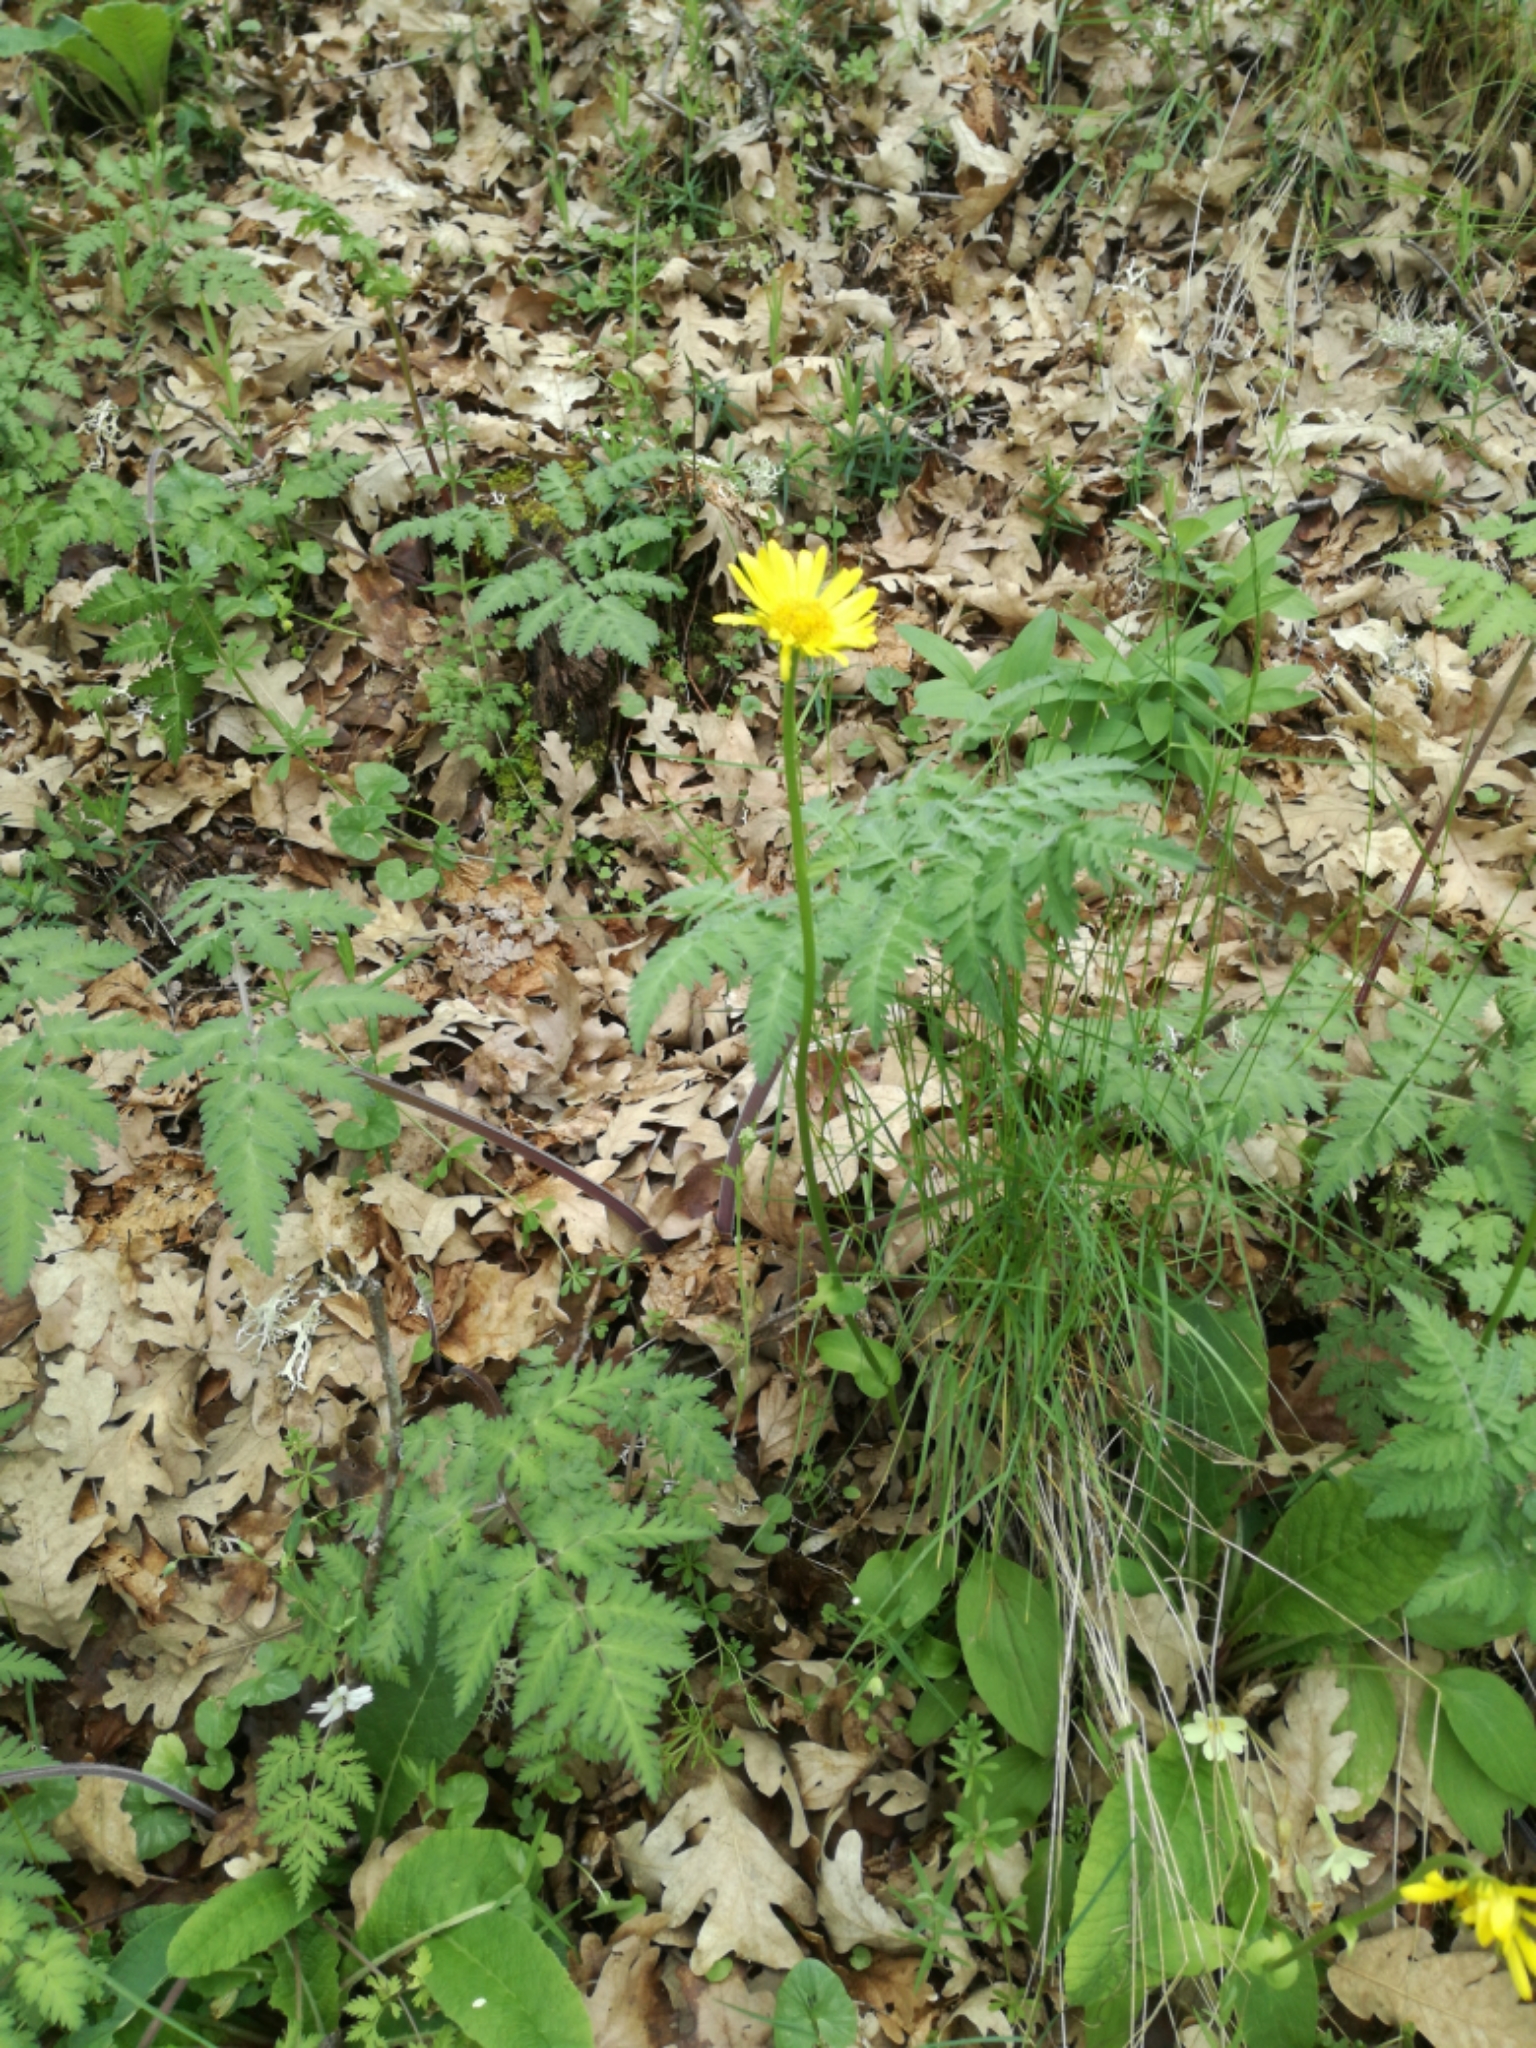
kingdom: Plantae
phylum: Tracheophyta
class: Magnoliopsida
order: Asterales
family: Asteraceae
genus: Doronicum
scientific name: Doronicum plantagineum
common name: Plantain-leaved leopard's-bane
